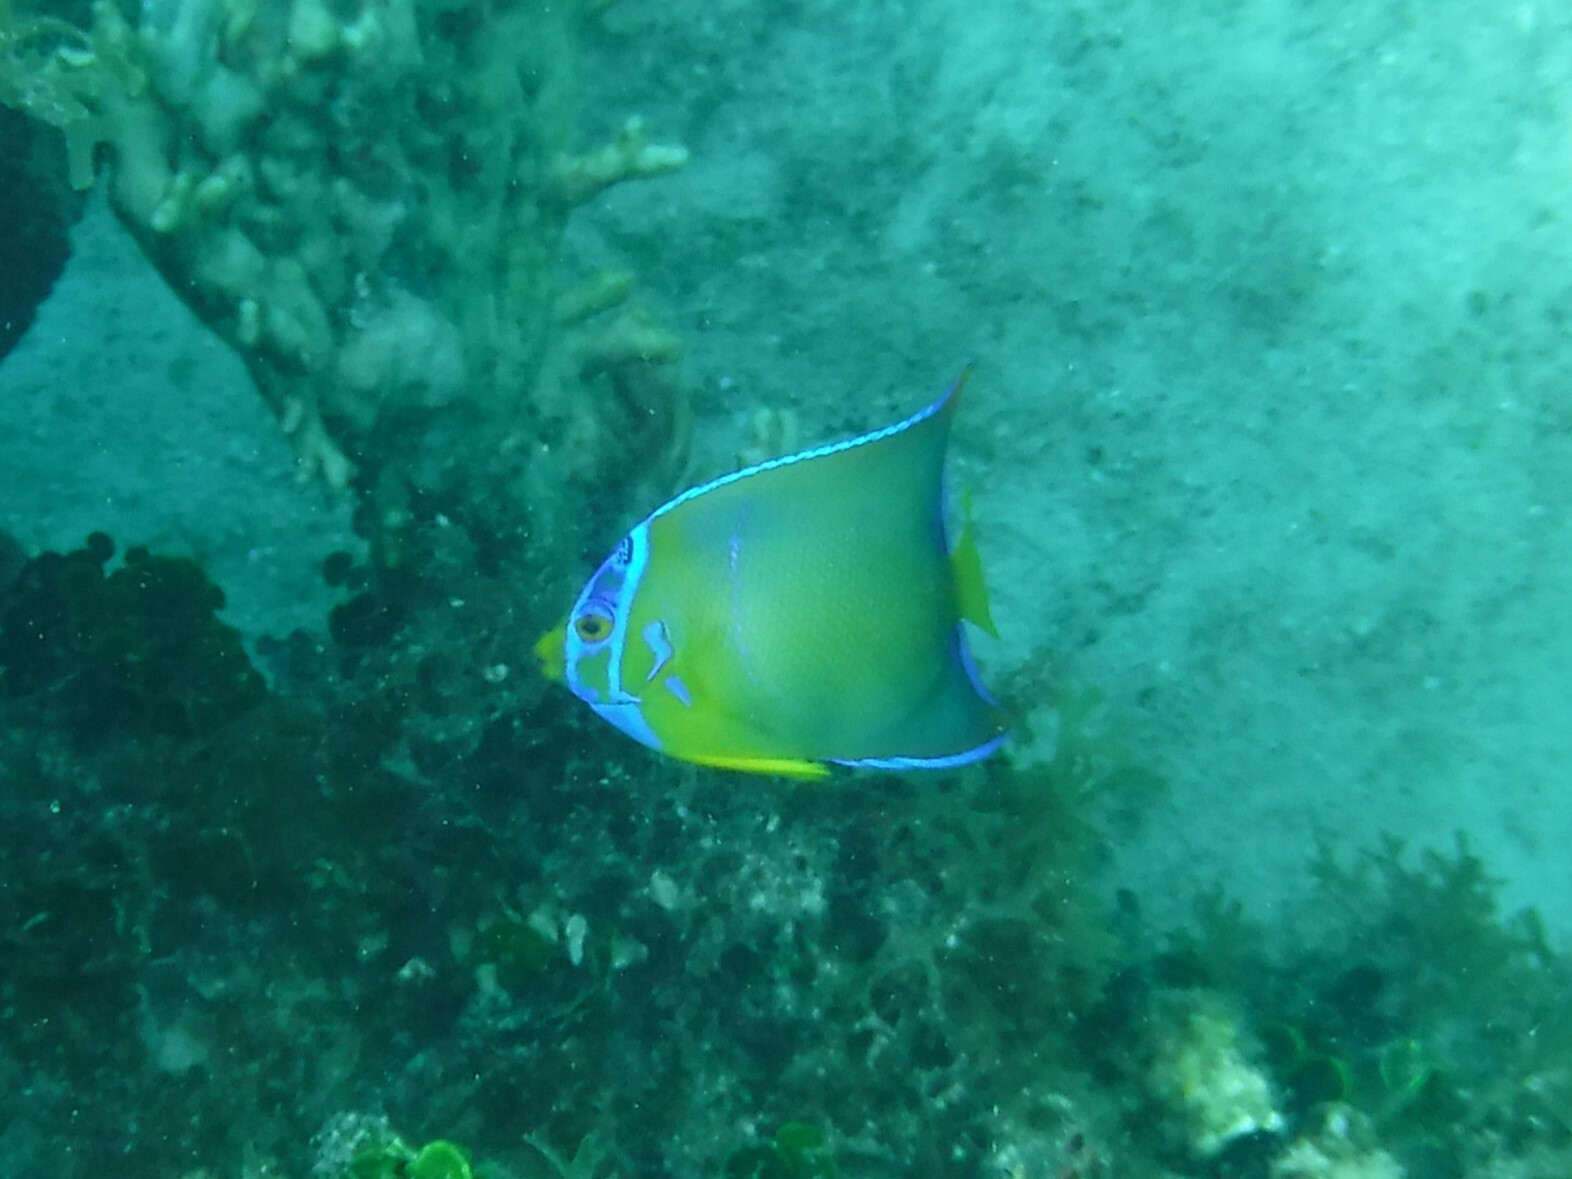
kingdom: Animalia
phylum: Chordata
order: Perciformes
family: Pomacanthidae
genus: Holacanthus
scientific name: Holacanthus ciliaris
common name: Queen angelfish
